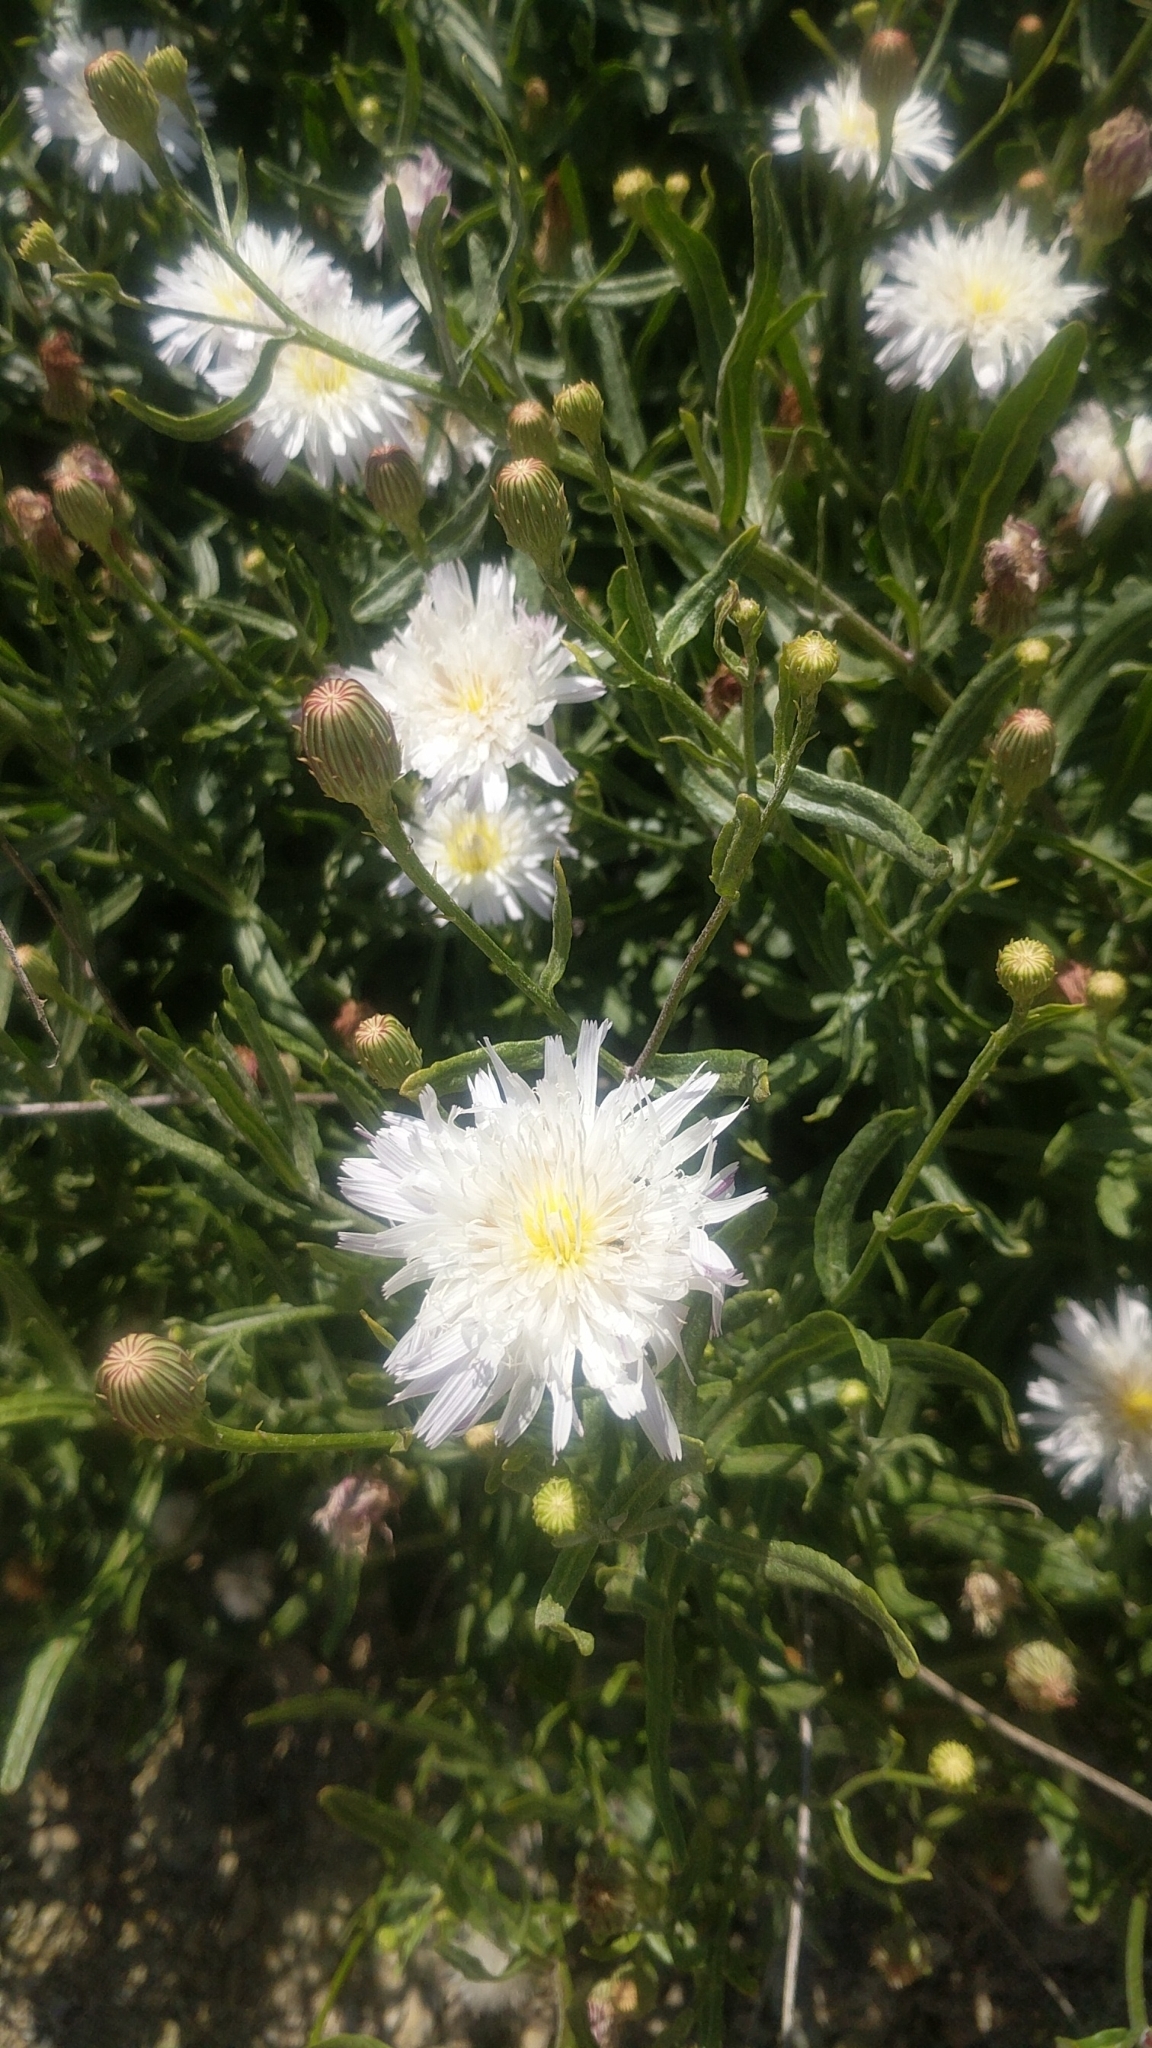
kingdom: Plantae
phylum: Tracheophyta
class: Magnoliopsida
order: Asterales
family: Asteraceae
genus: Malacothrix
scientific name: Malacothrix saxatilis
